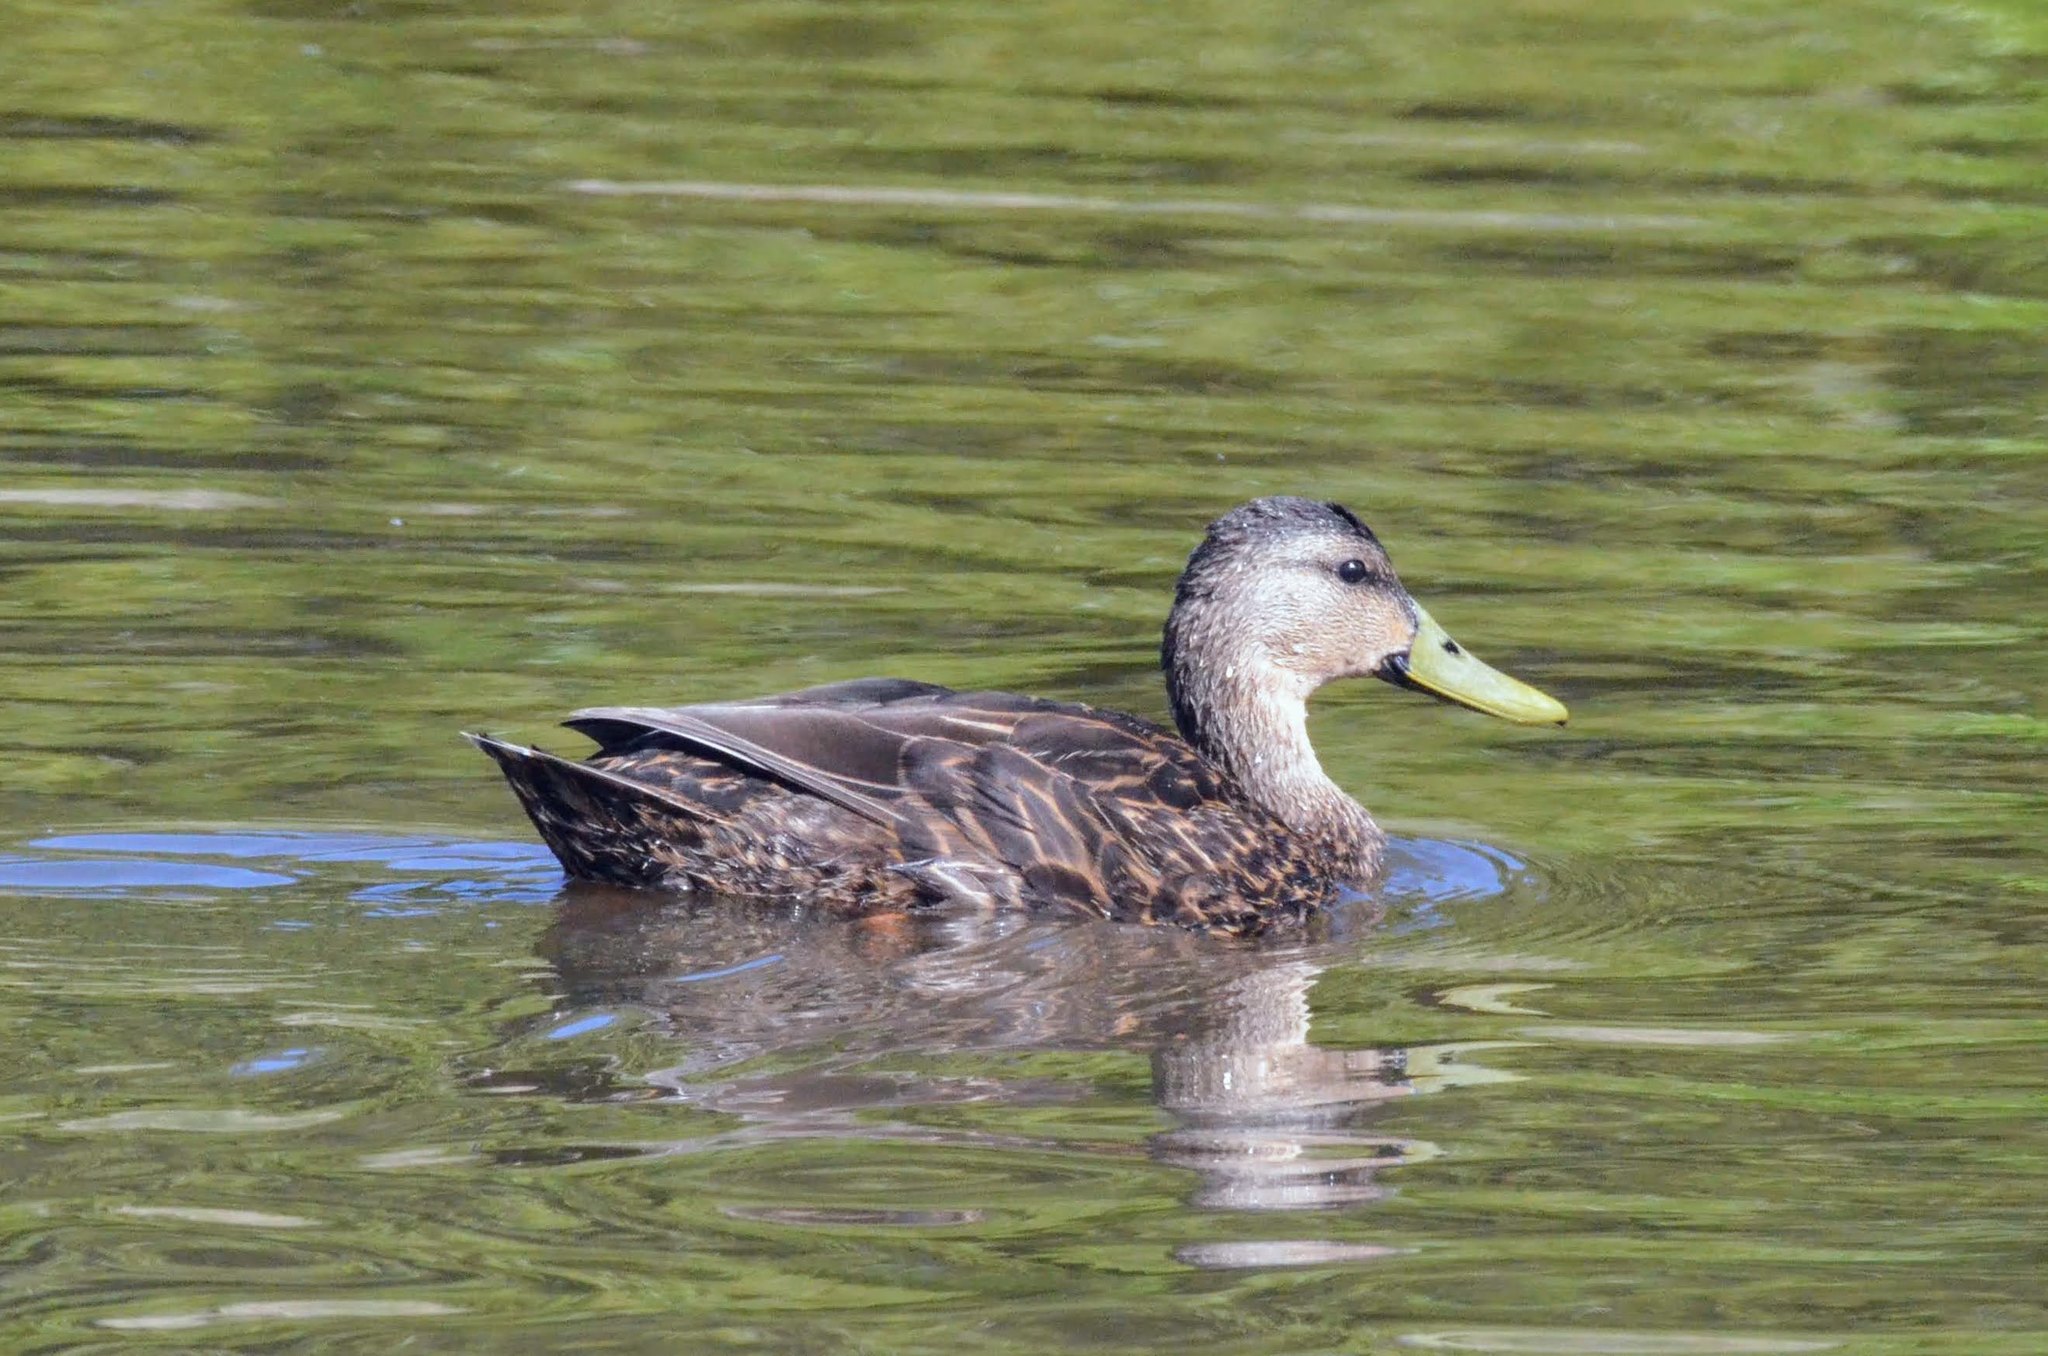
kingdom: Animalia
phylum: Chordata
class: Aves
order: Anseriformes
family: Anatidae
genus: Anas
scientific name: Anas fulvigula
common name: Mottled duck
